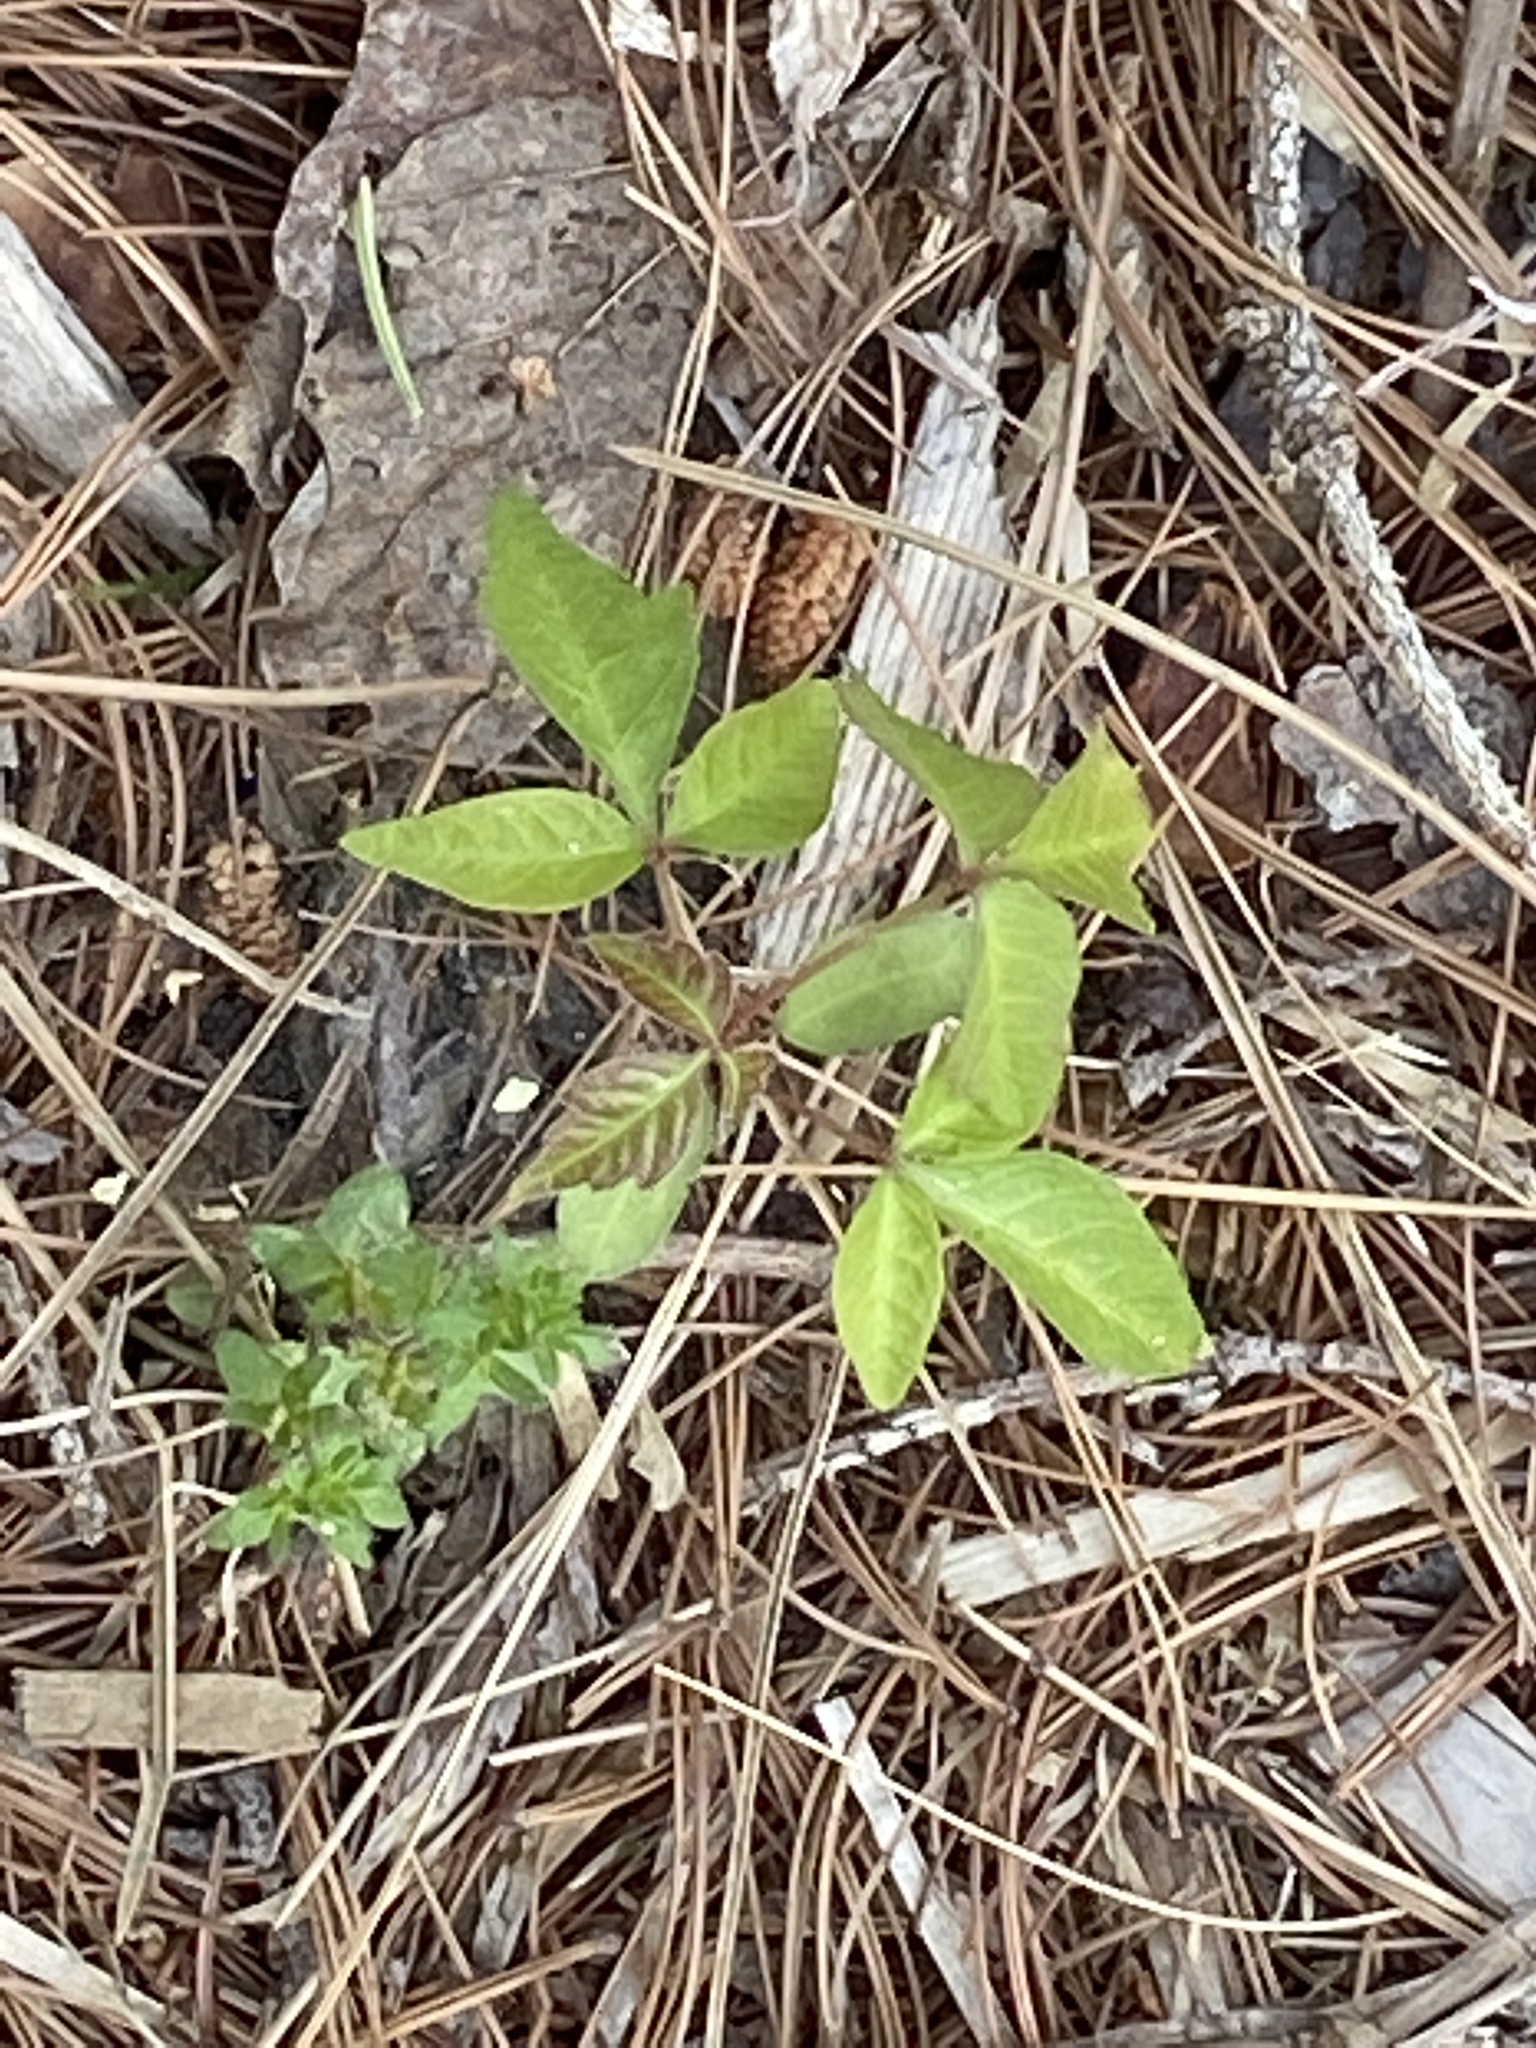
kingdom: Plantae
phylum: Tracheophyta
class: Magnoliopsida
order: Sapindales
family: Anacardiaceae
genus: Toxicodendron
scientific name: Toxicodendron radicans
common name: Poison ivy
